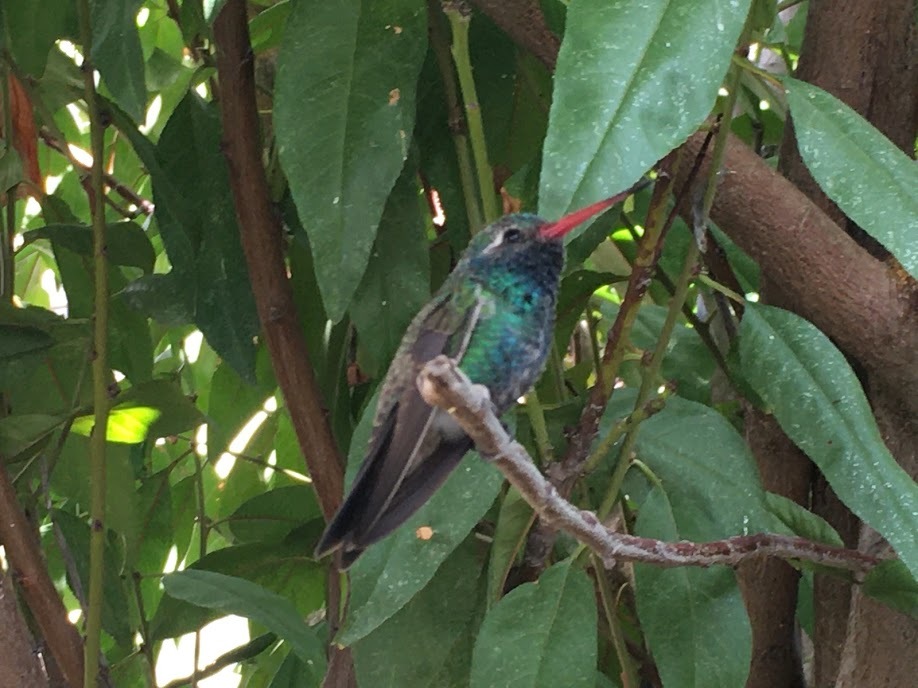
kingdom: Animalia
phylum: Chordata
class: Aves
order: Apodiformes
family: Trochilidae
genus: Cynanthus
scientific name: Cynanthus latirostris
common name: Broad-billed hummingbird
